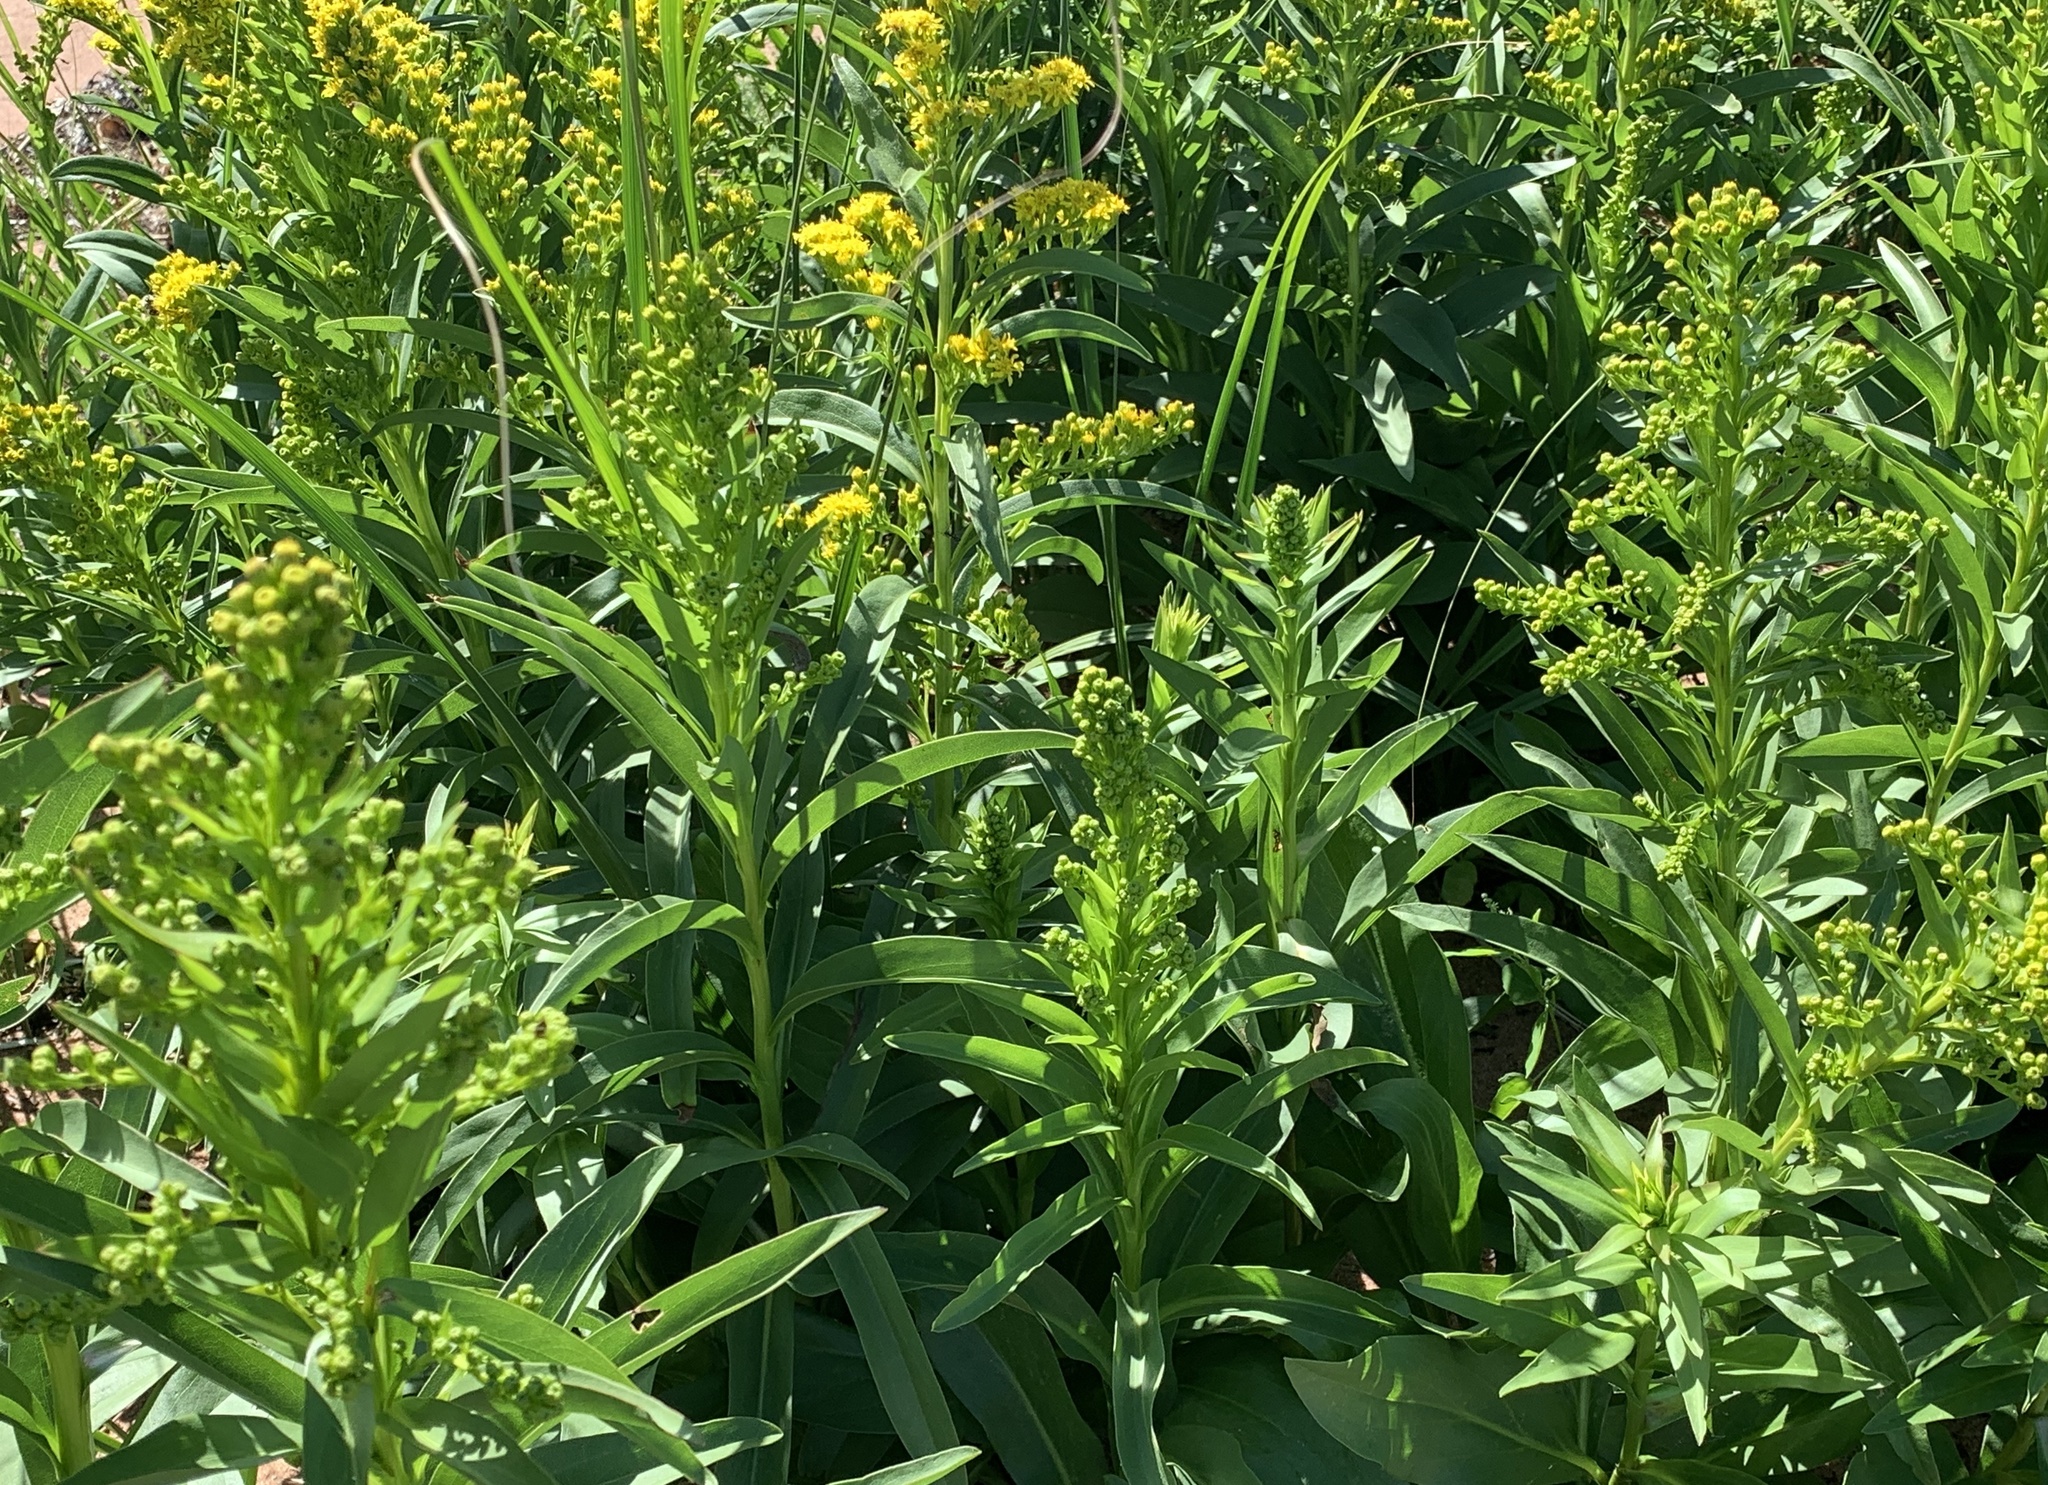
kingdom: Plantae
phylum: Tracheophyta
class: Magnoliopsida
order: Asterales
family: Asteraceae
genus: Solidago
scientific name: Solidago sempervirens
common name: Salt-marsh goldenrod
